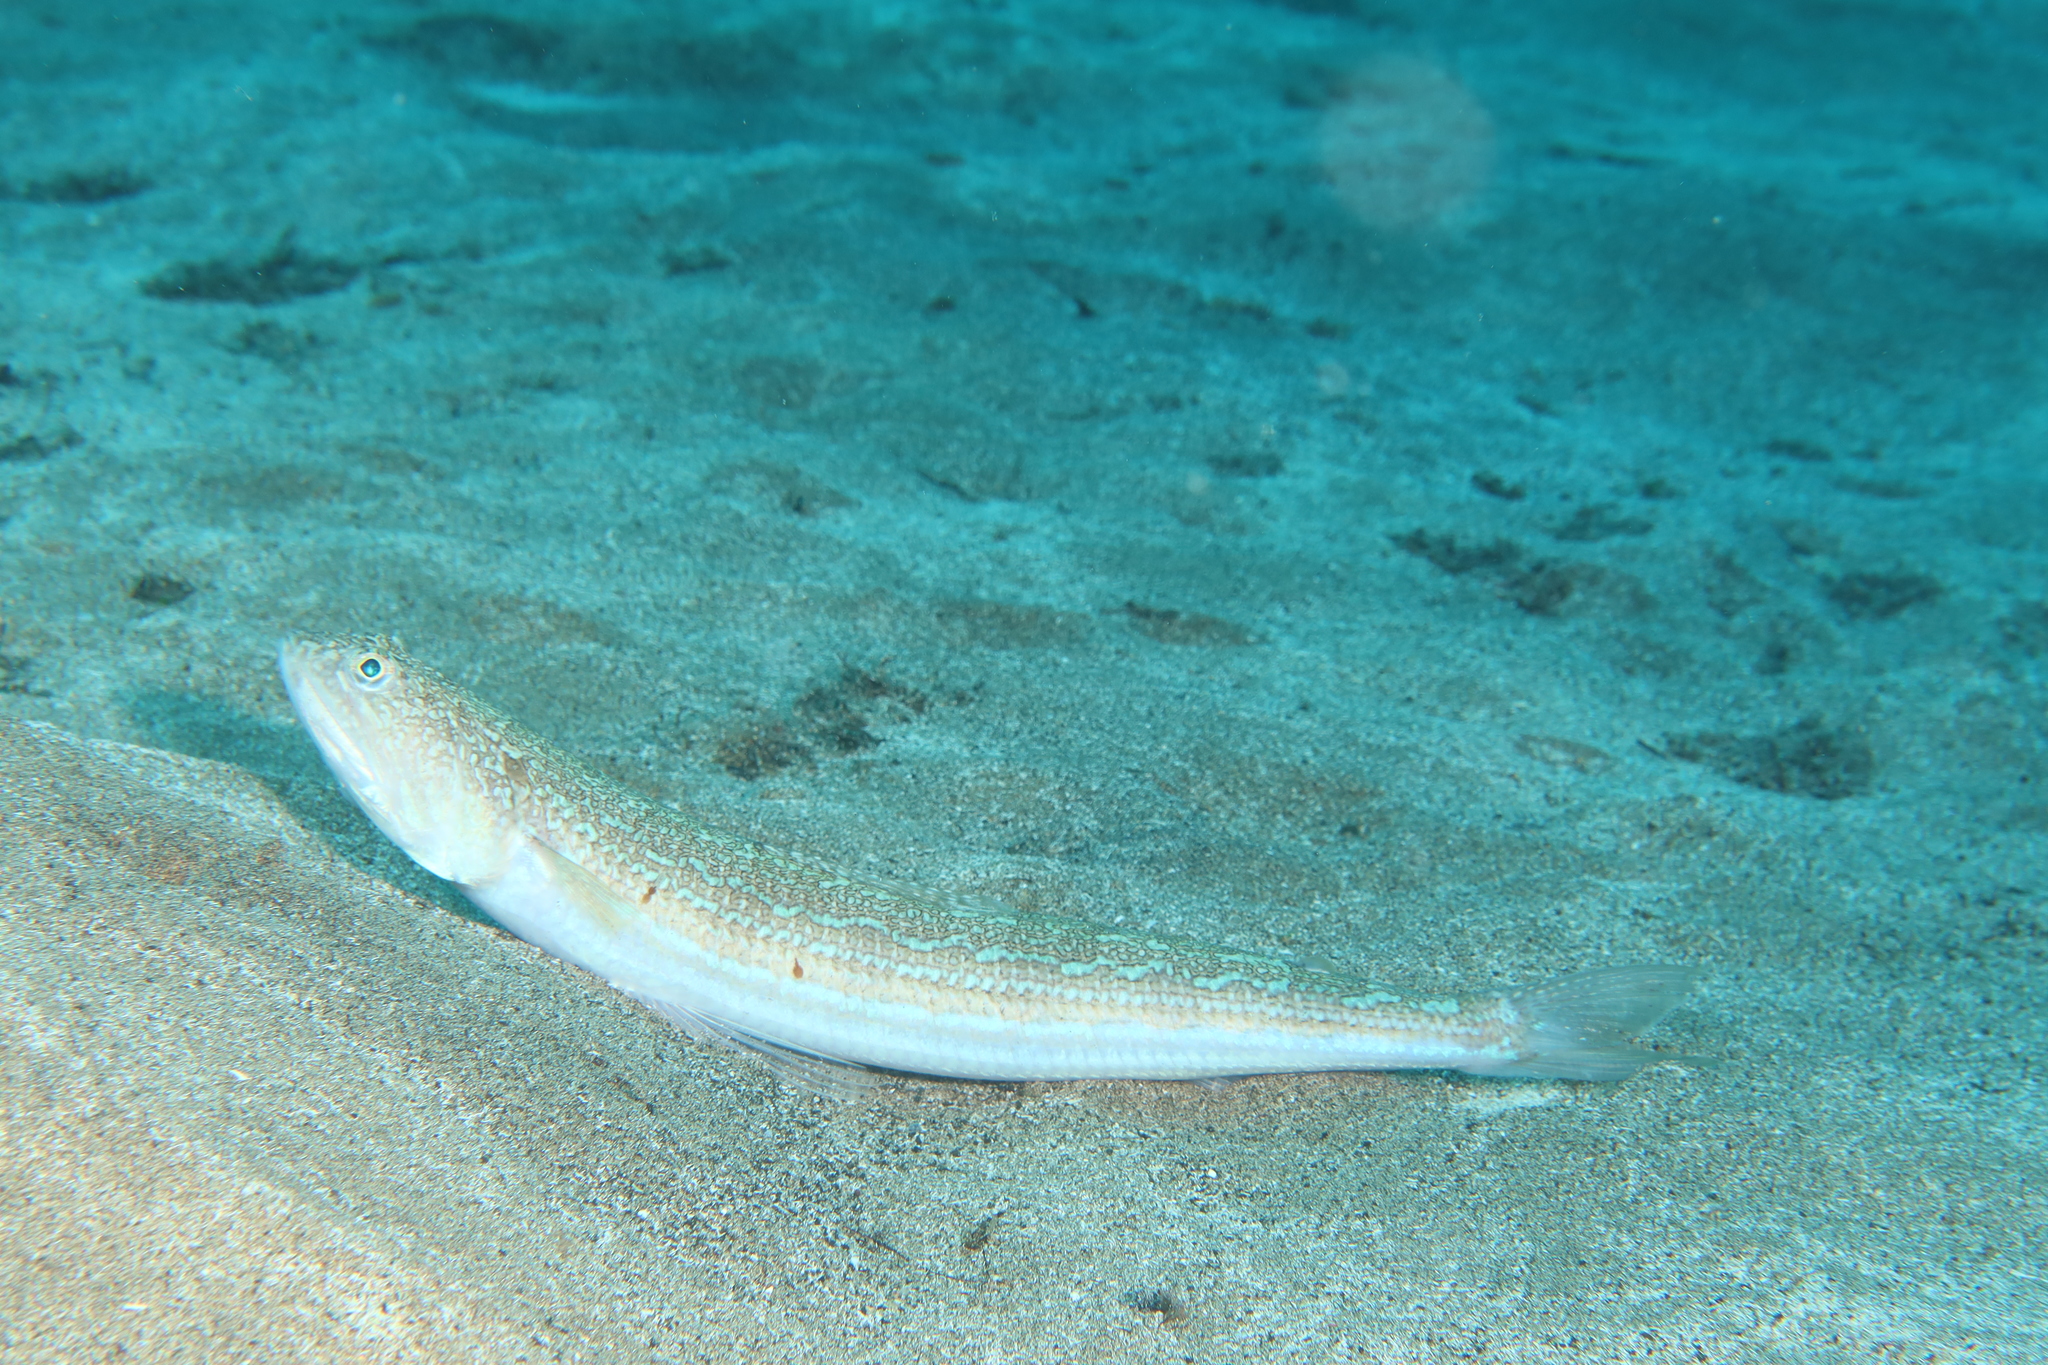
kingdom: Animalia
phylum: Chordata
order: Aulopiformes
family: Synodontidae
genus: Synodus
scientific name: Synodus saurus
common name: Atlantic lizardfish
